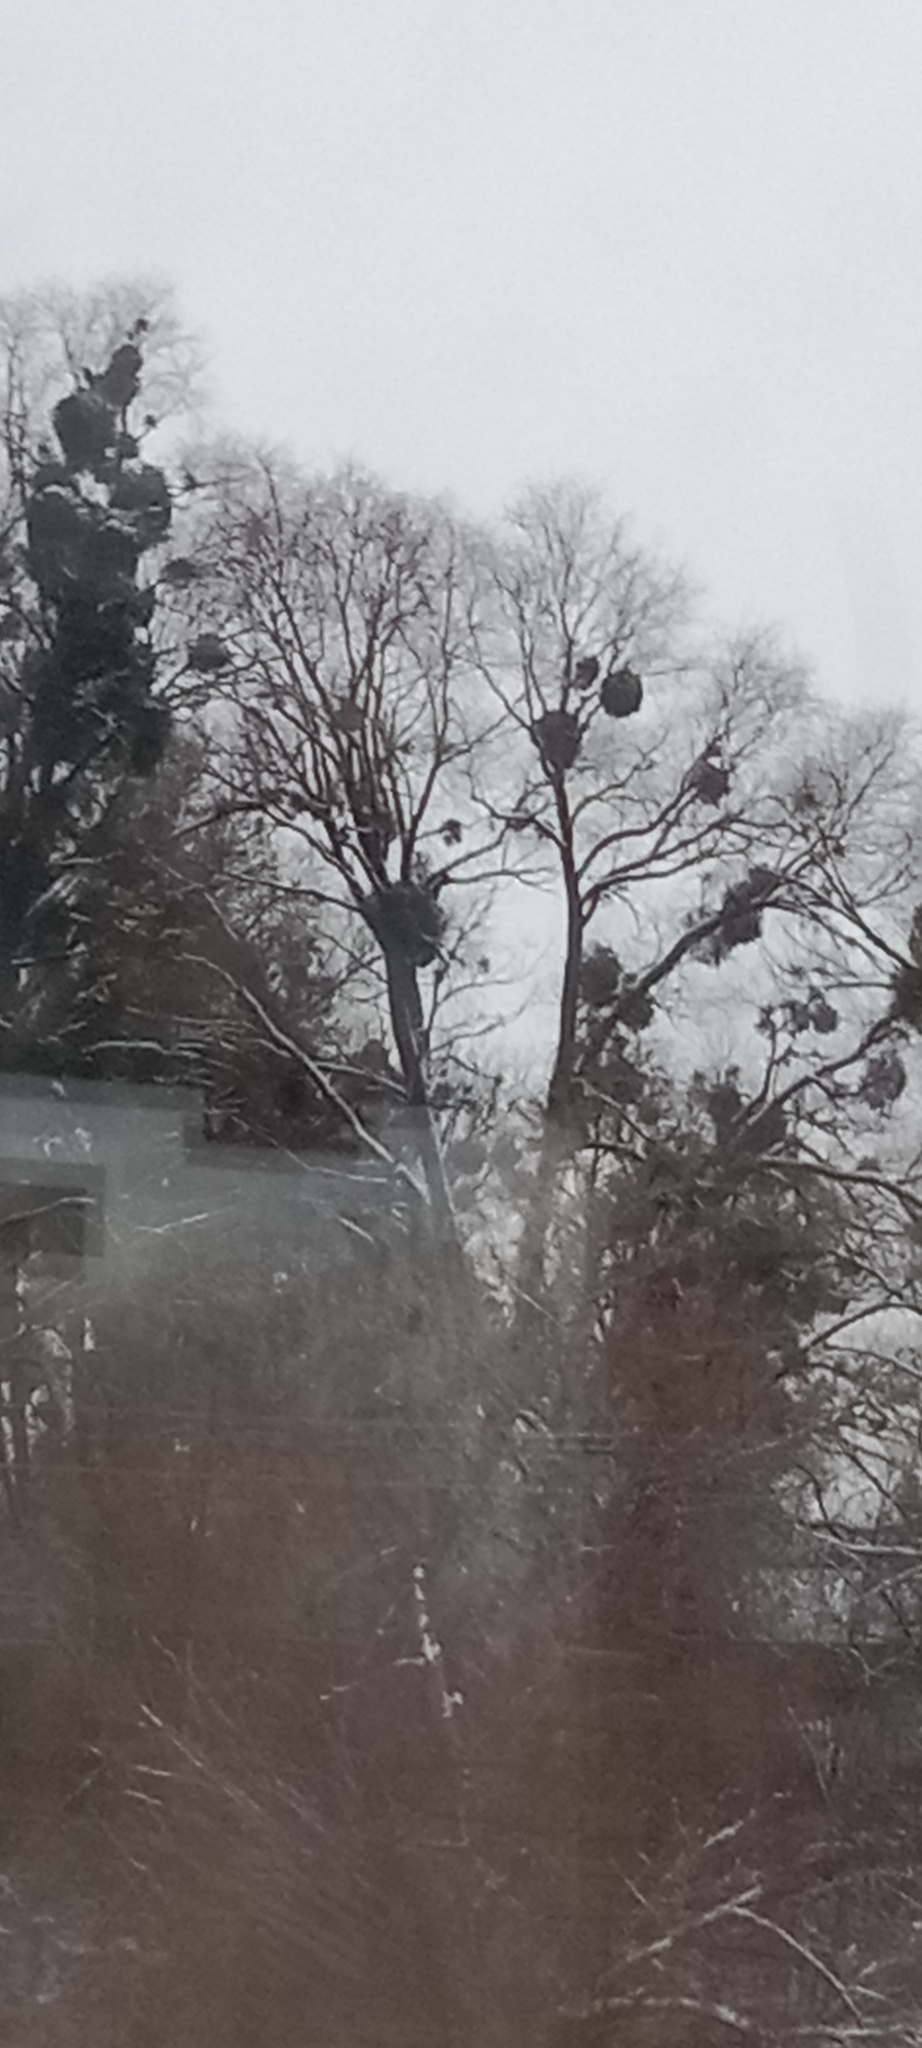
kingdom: Plantae
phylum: Tracheophyta
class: Magnoliopsida
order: Santalales
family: Viscaceae
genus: Viscum
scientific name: Viscum album
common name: Mistletoe
